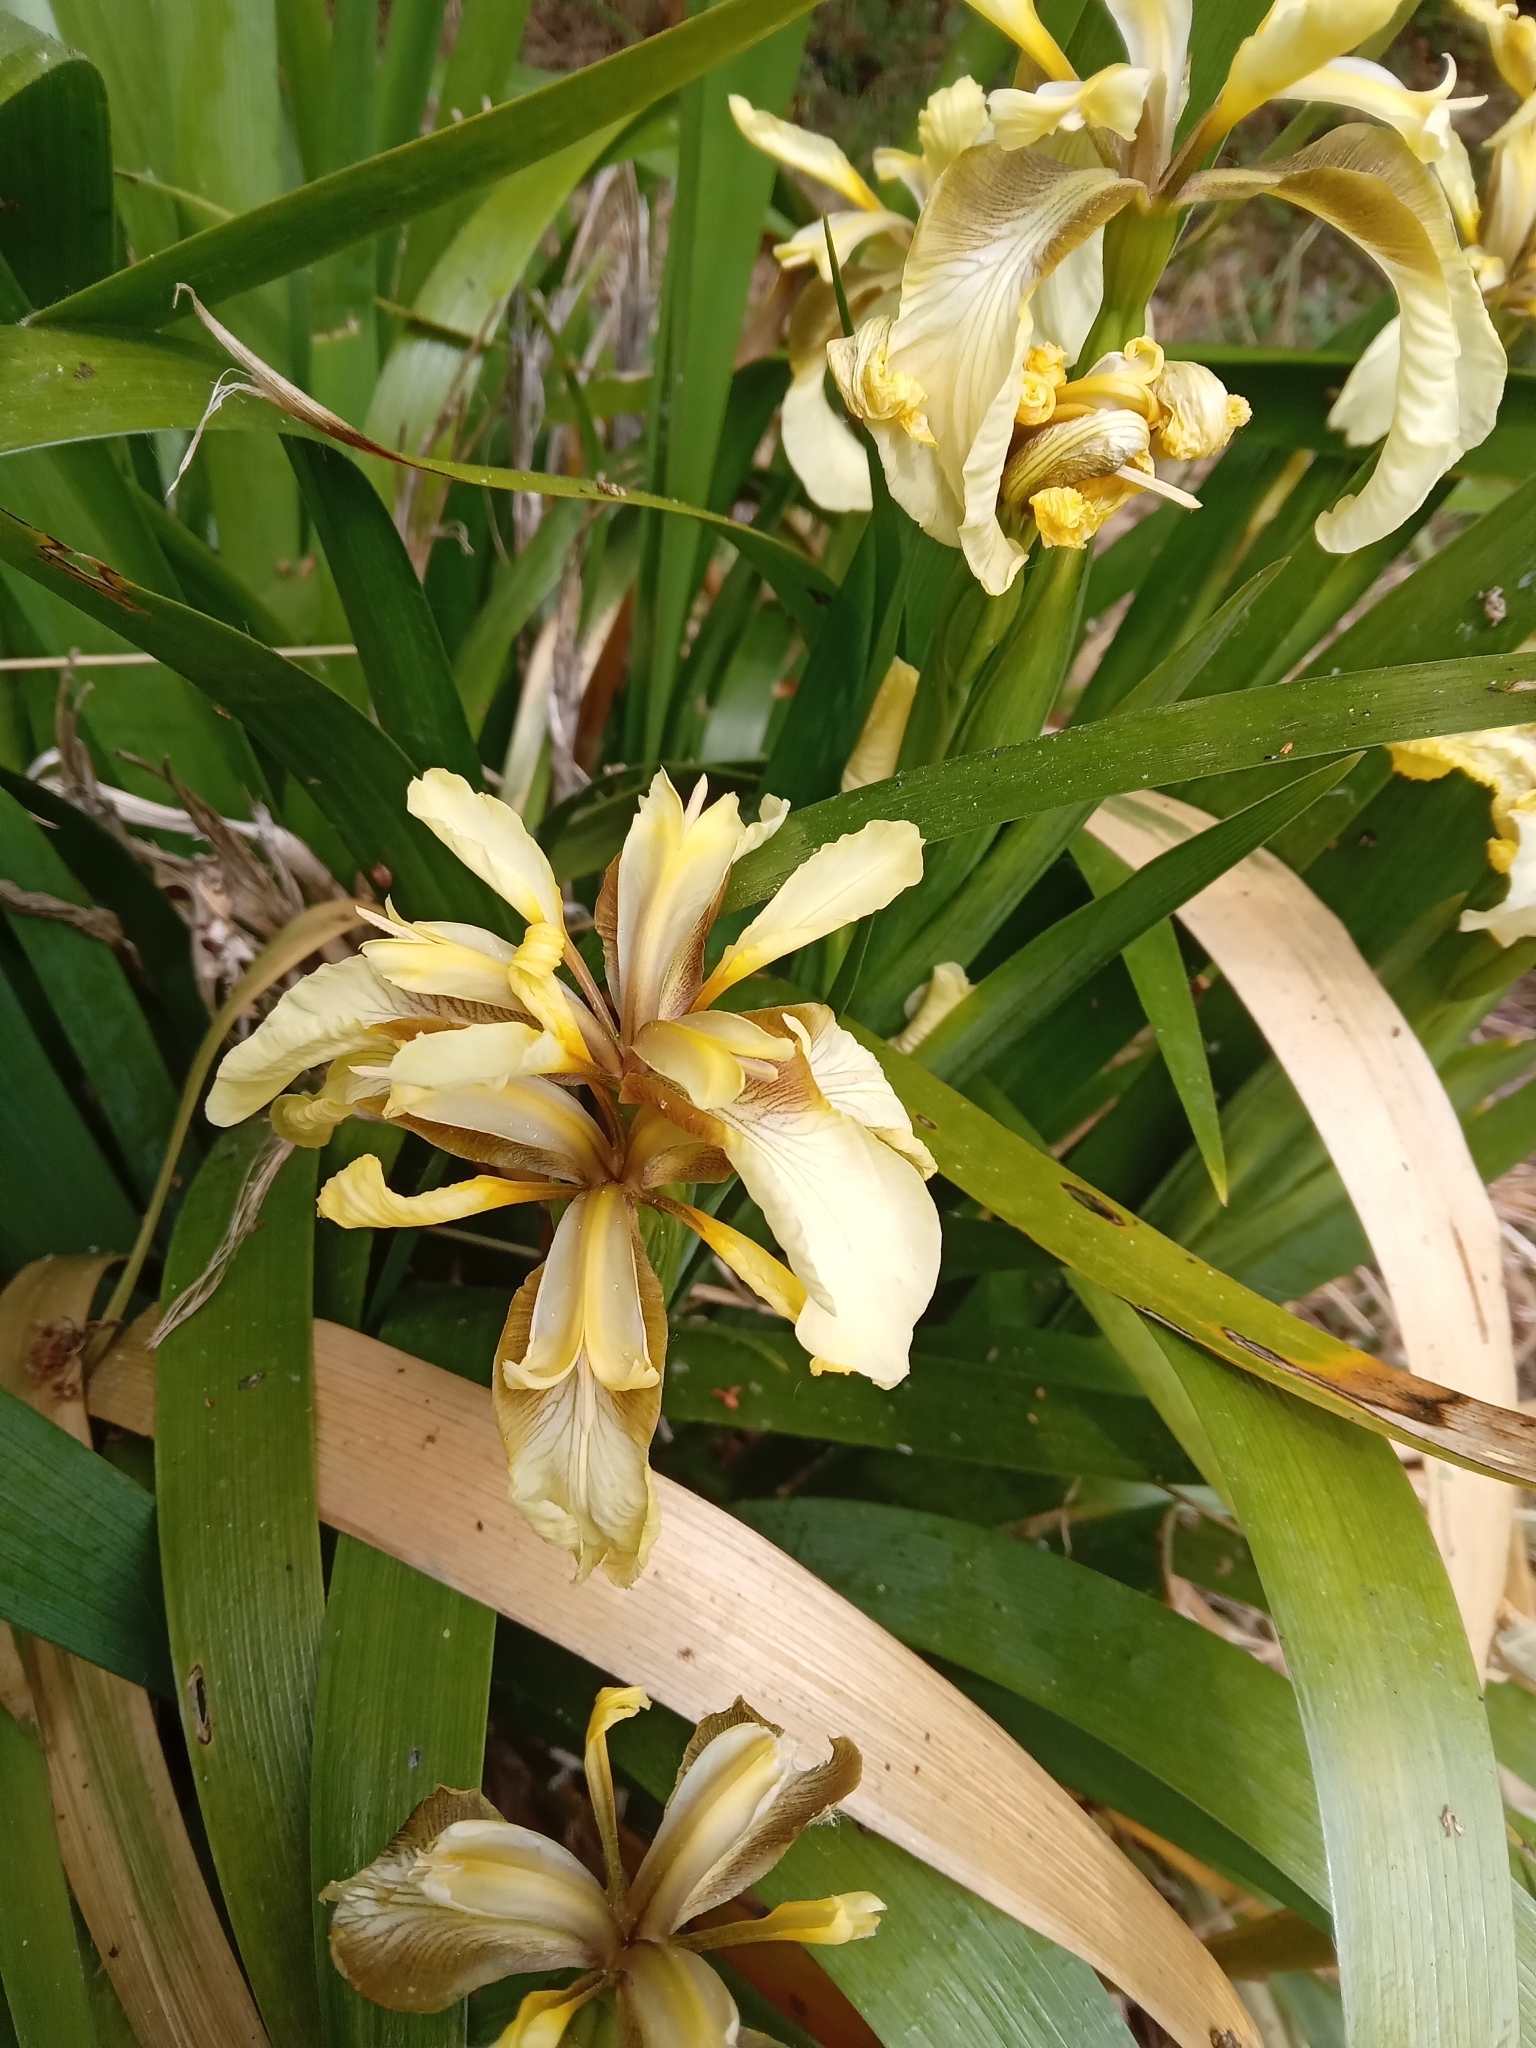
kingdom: Plantae
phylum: Tracheophyta
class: Liliopsida
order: Asparagales
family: Iridaceae
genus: Iris
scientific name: Iris foetidissima
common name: Stinking iris
